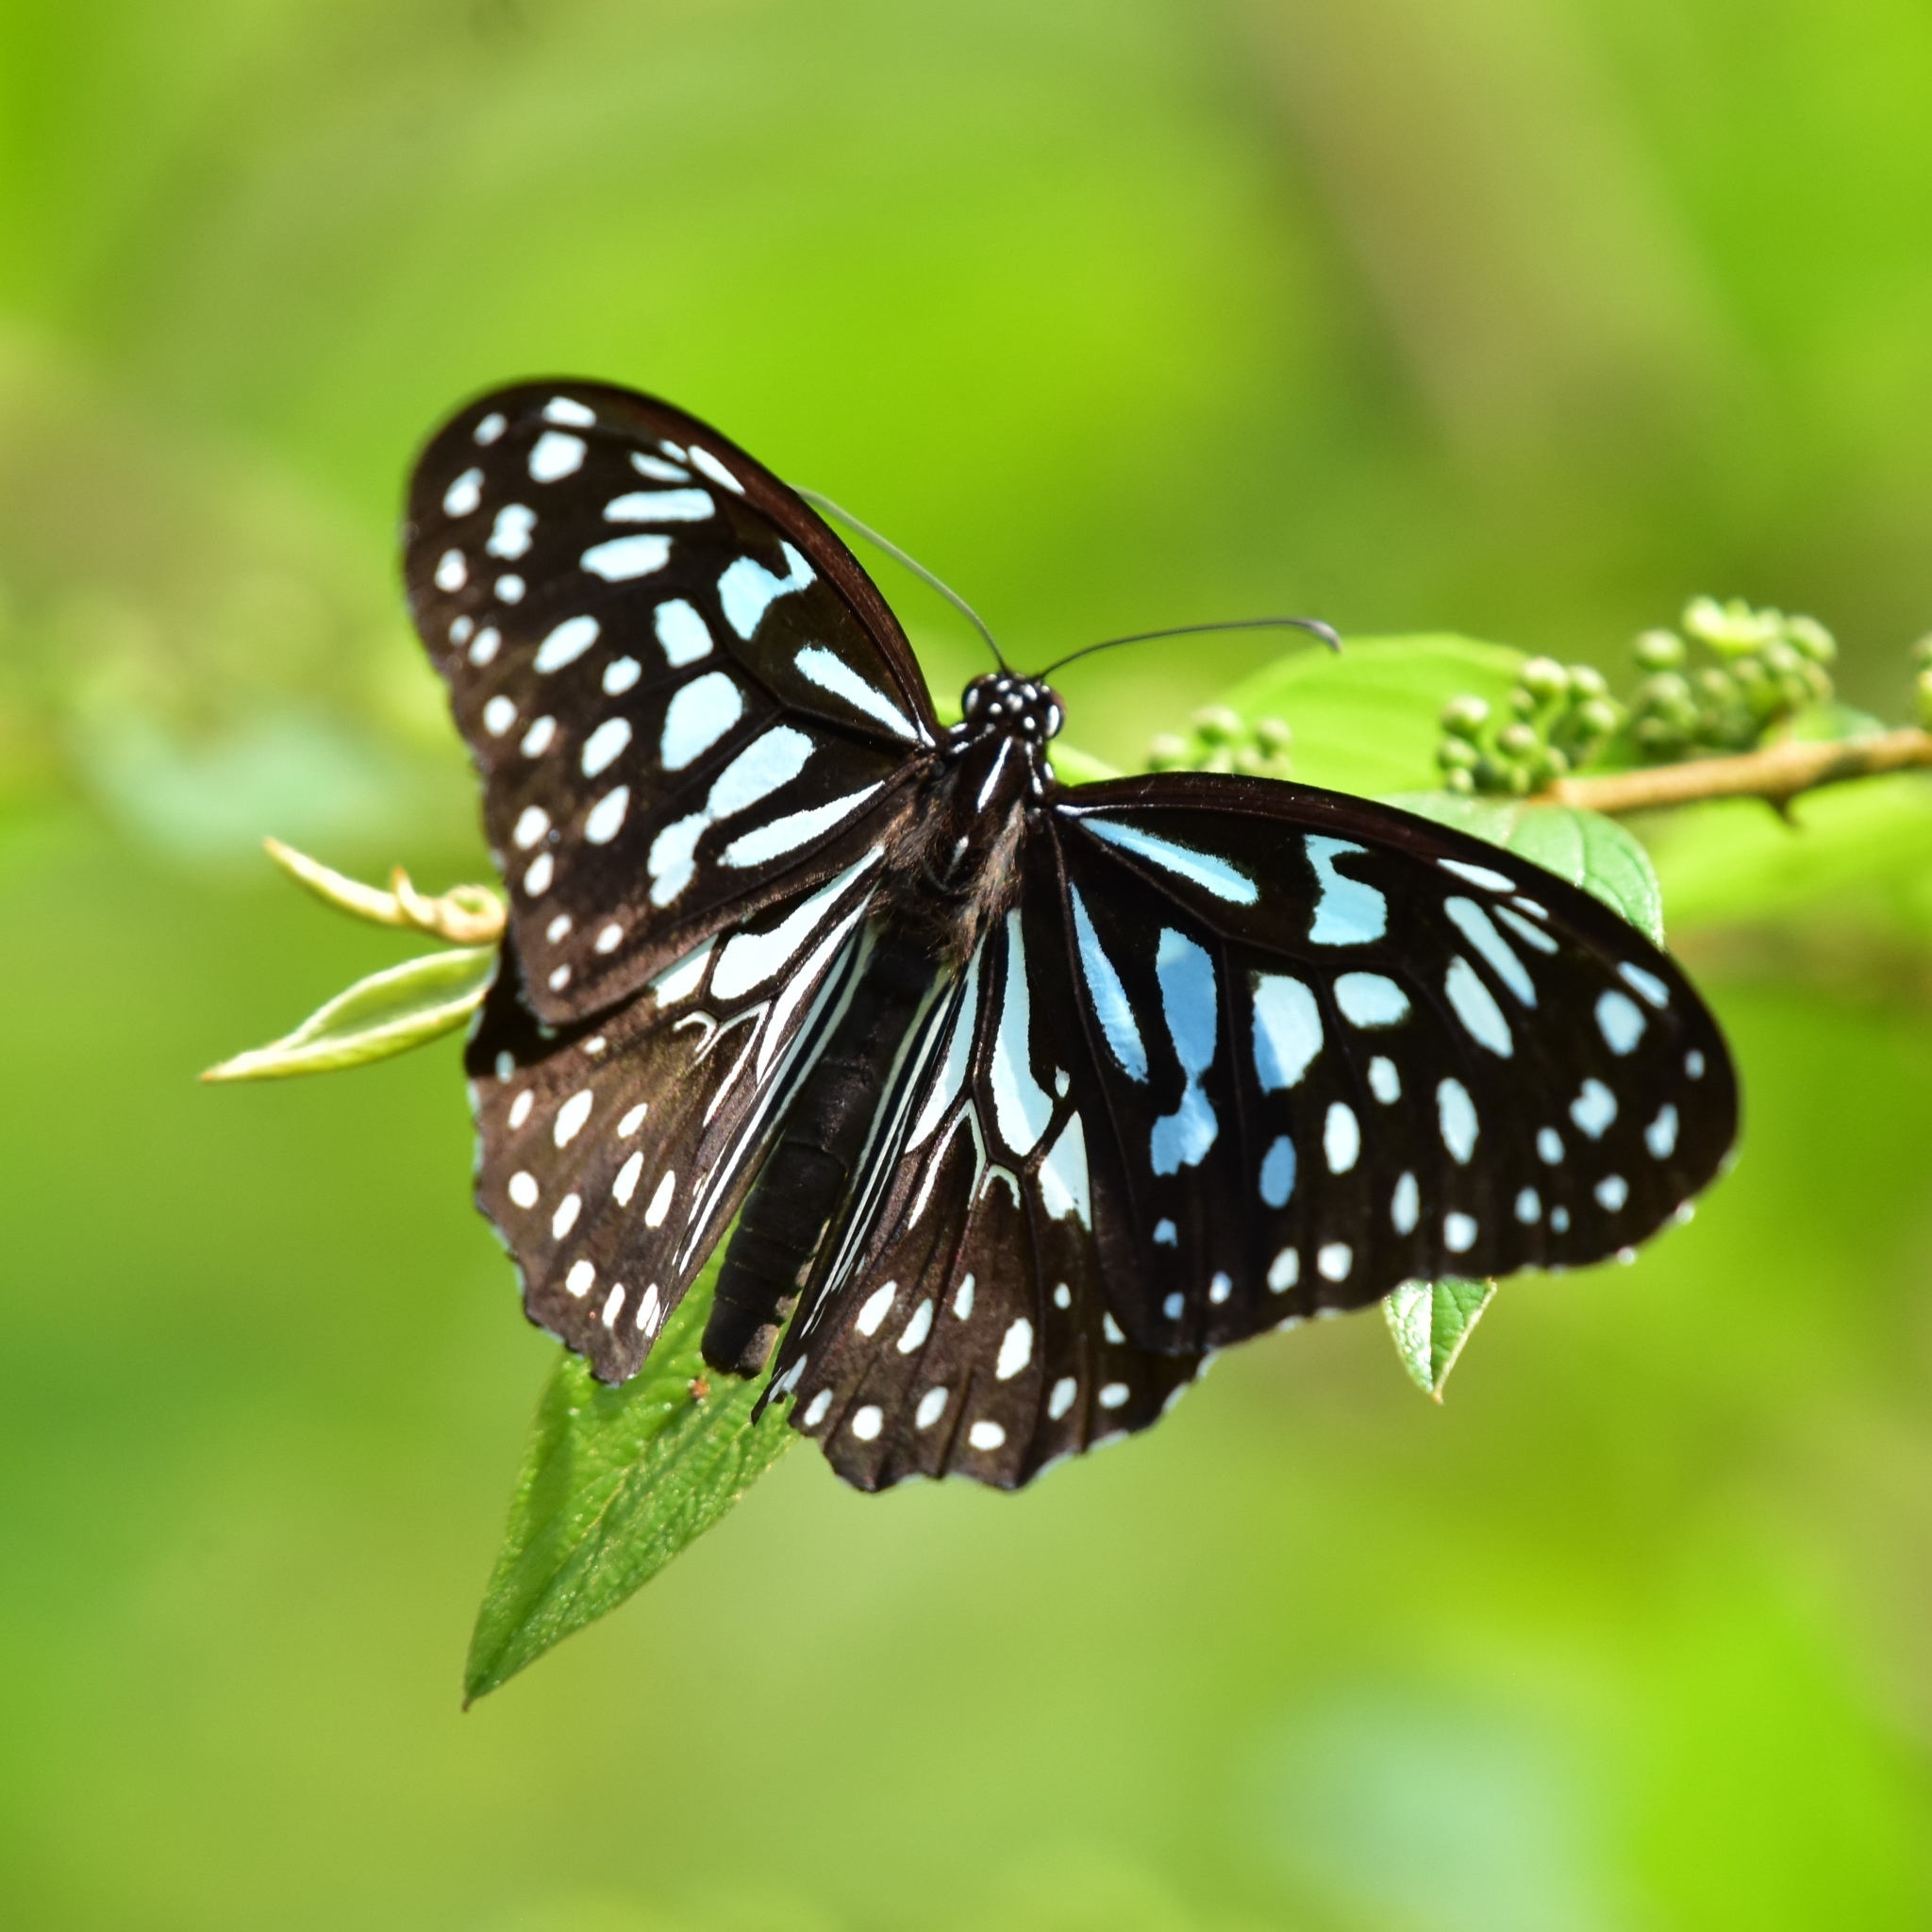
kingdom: Animalia
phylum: Arthropoda
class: Insecta
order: Lepidoptera
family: Nymphalidae
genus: Tirumala
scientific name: Tirumala septentrionis
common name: Dark blue tiger butterfly
